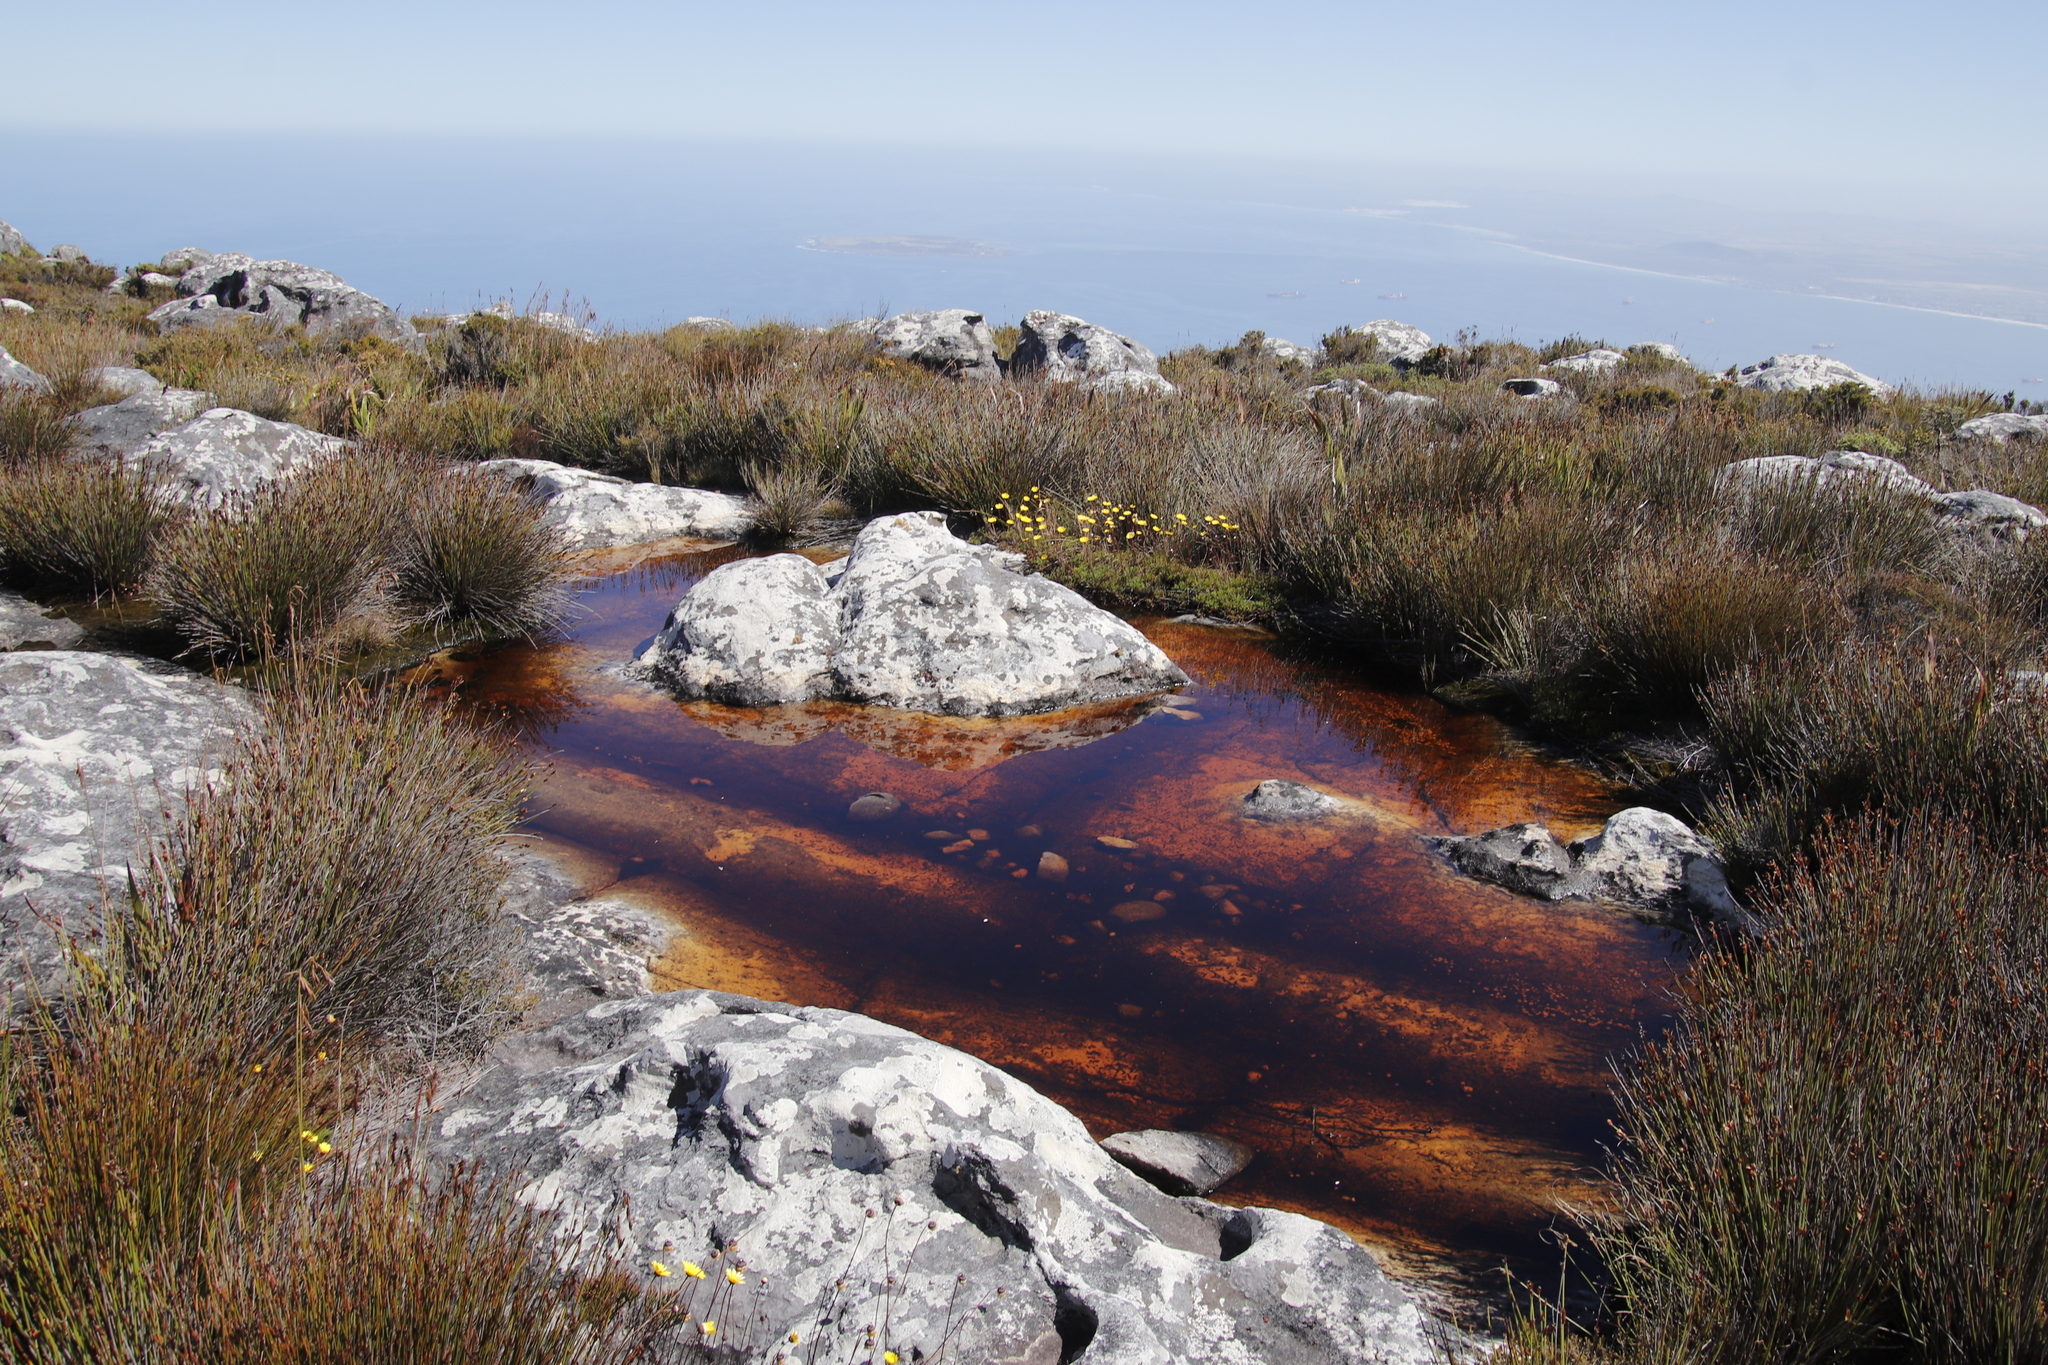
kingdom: Plantae
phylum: Tracheophyta
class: Magnoliopsida
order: Asterales
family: Asteraceae
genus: Ursinia
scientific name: Ursinia nudicaulis
